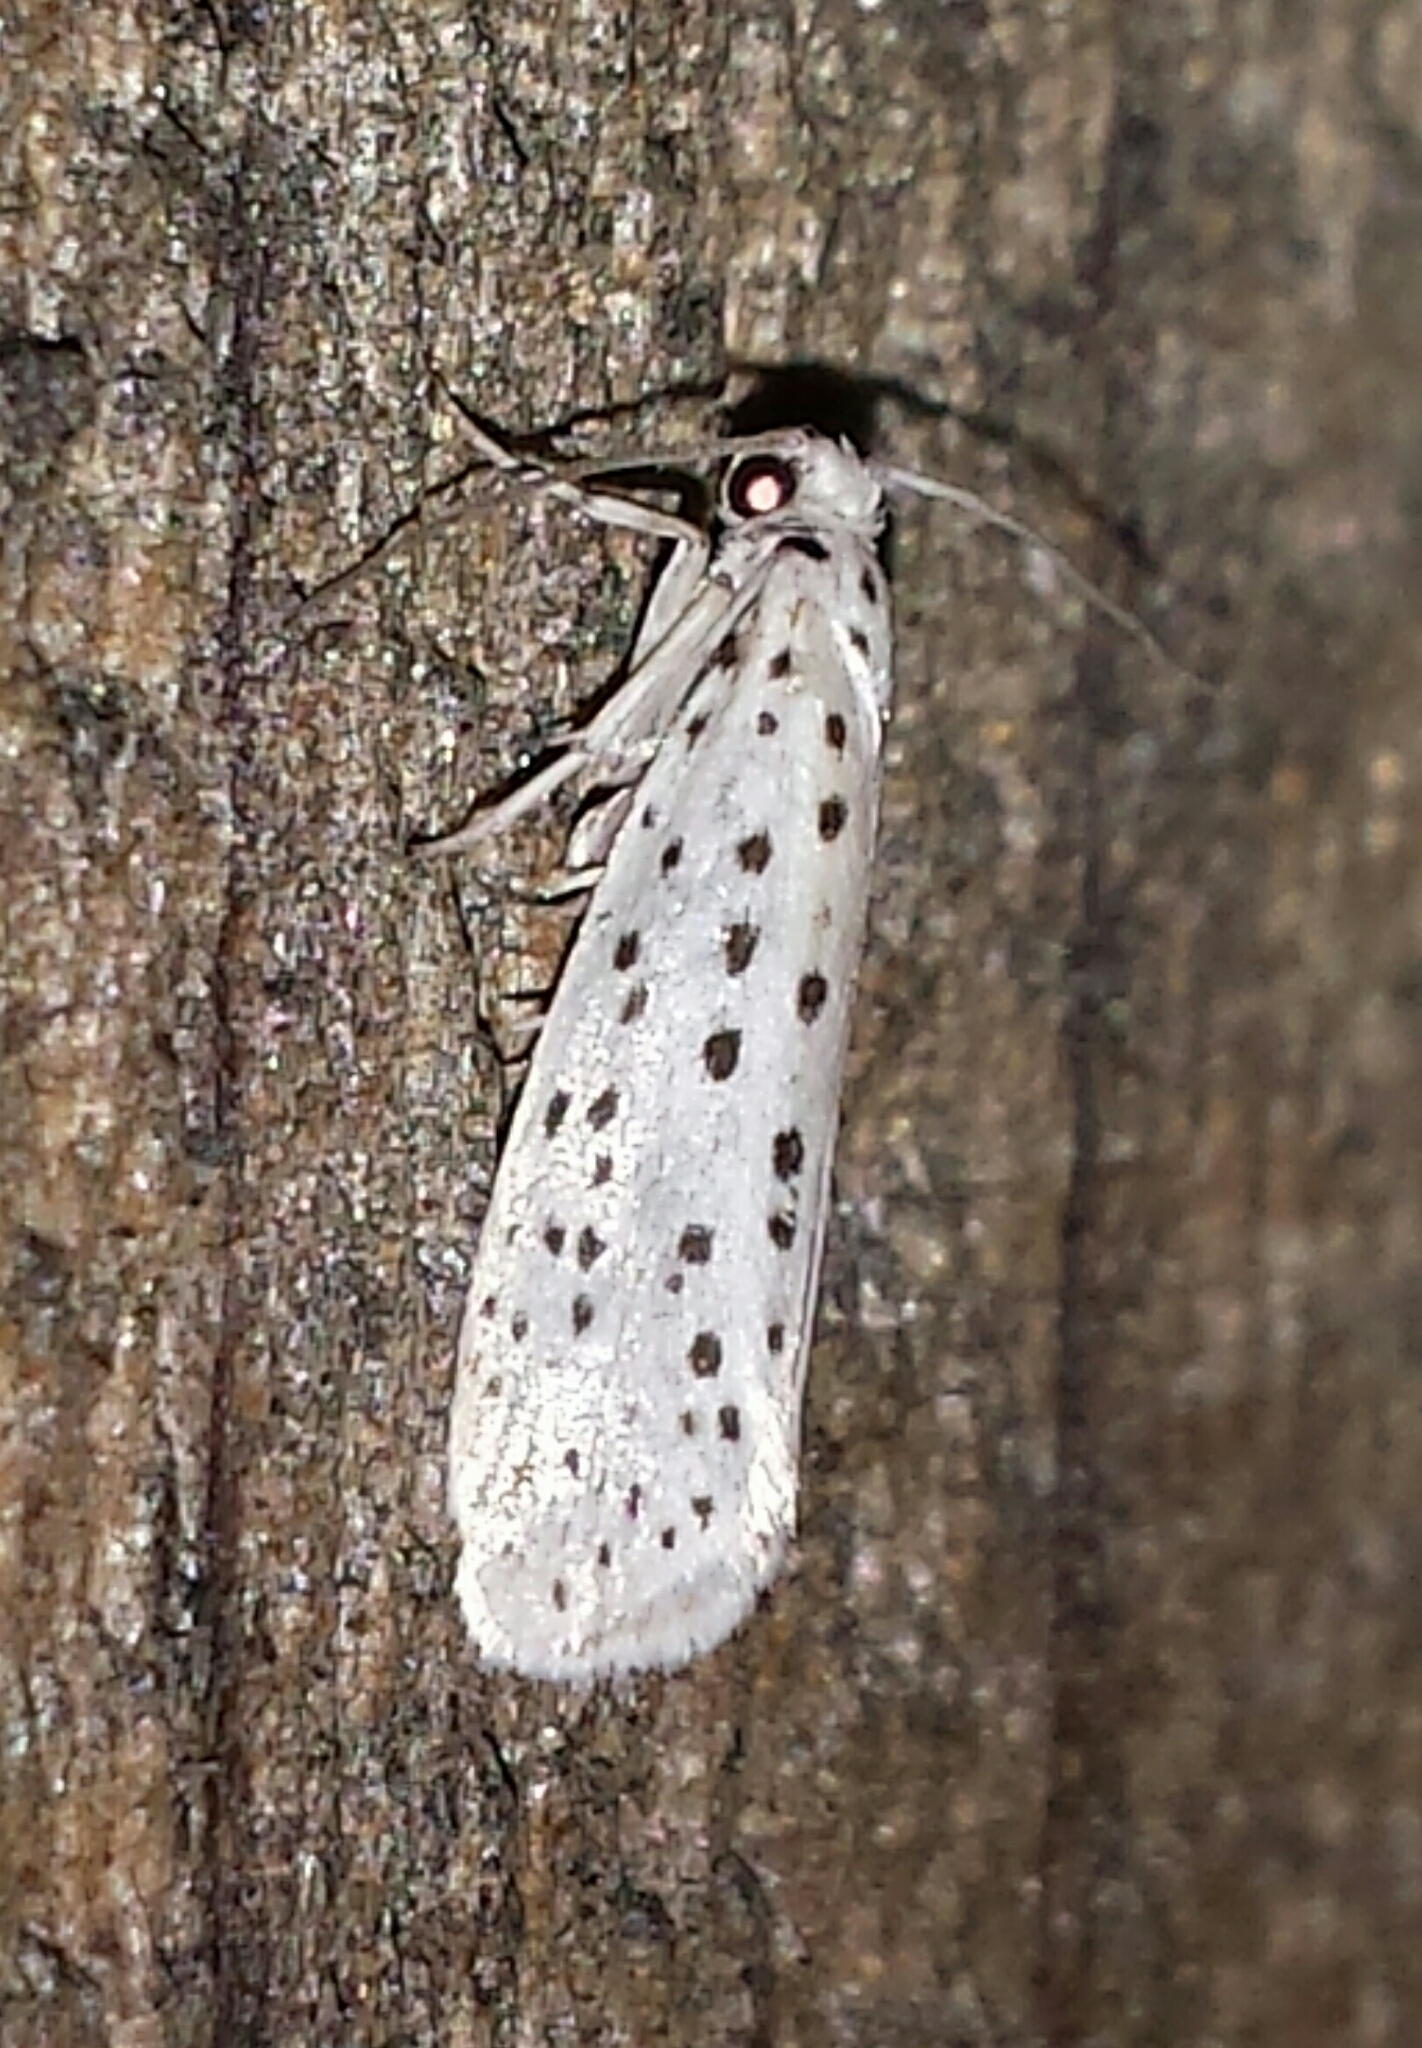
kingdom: Animalia
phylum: Arthropoda
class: Insecta
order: Lepidoptera
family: Yponomeutidae
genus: Yponomeuta
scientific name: Yponomeuta multipunctella
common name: American ermine moth
